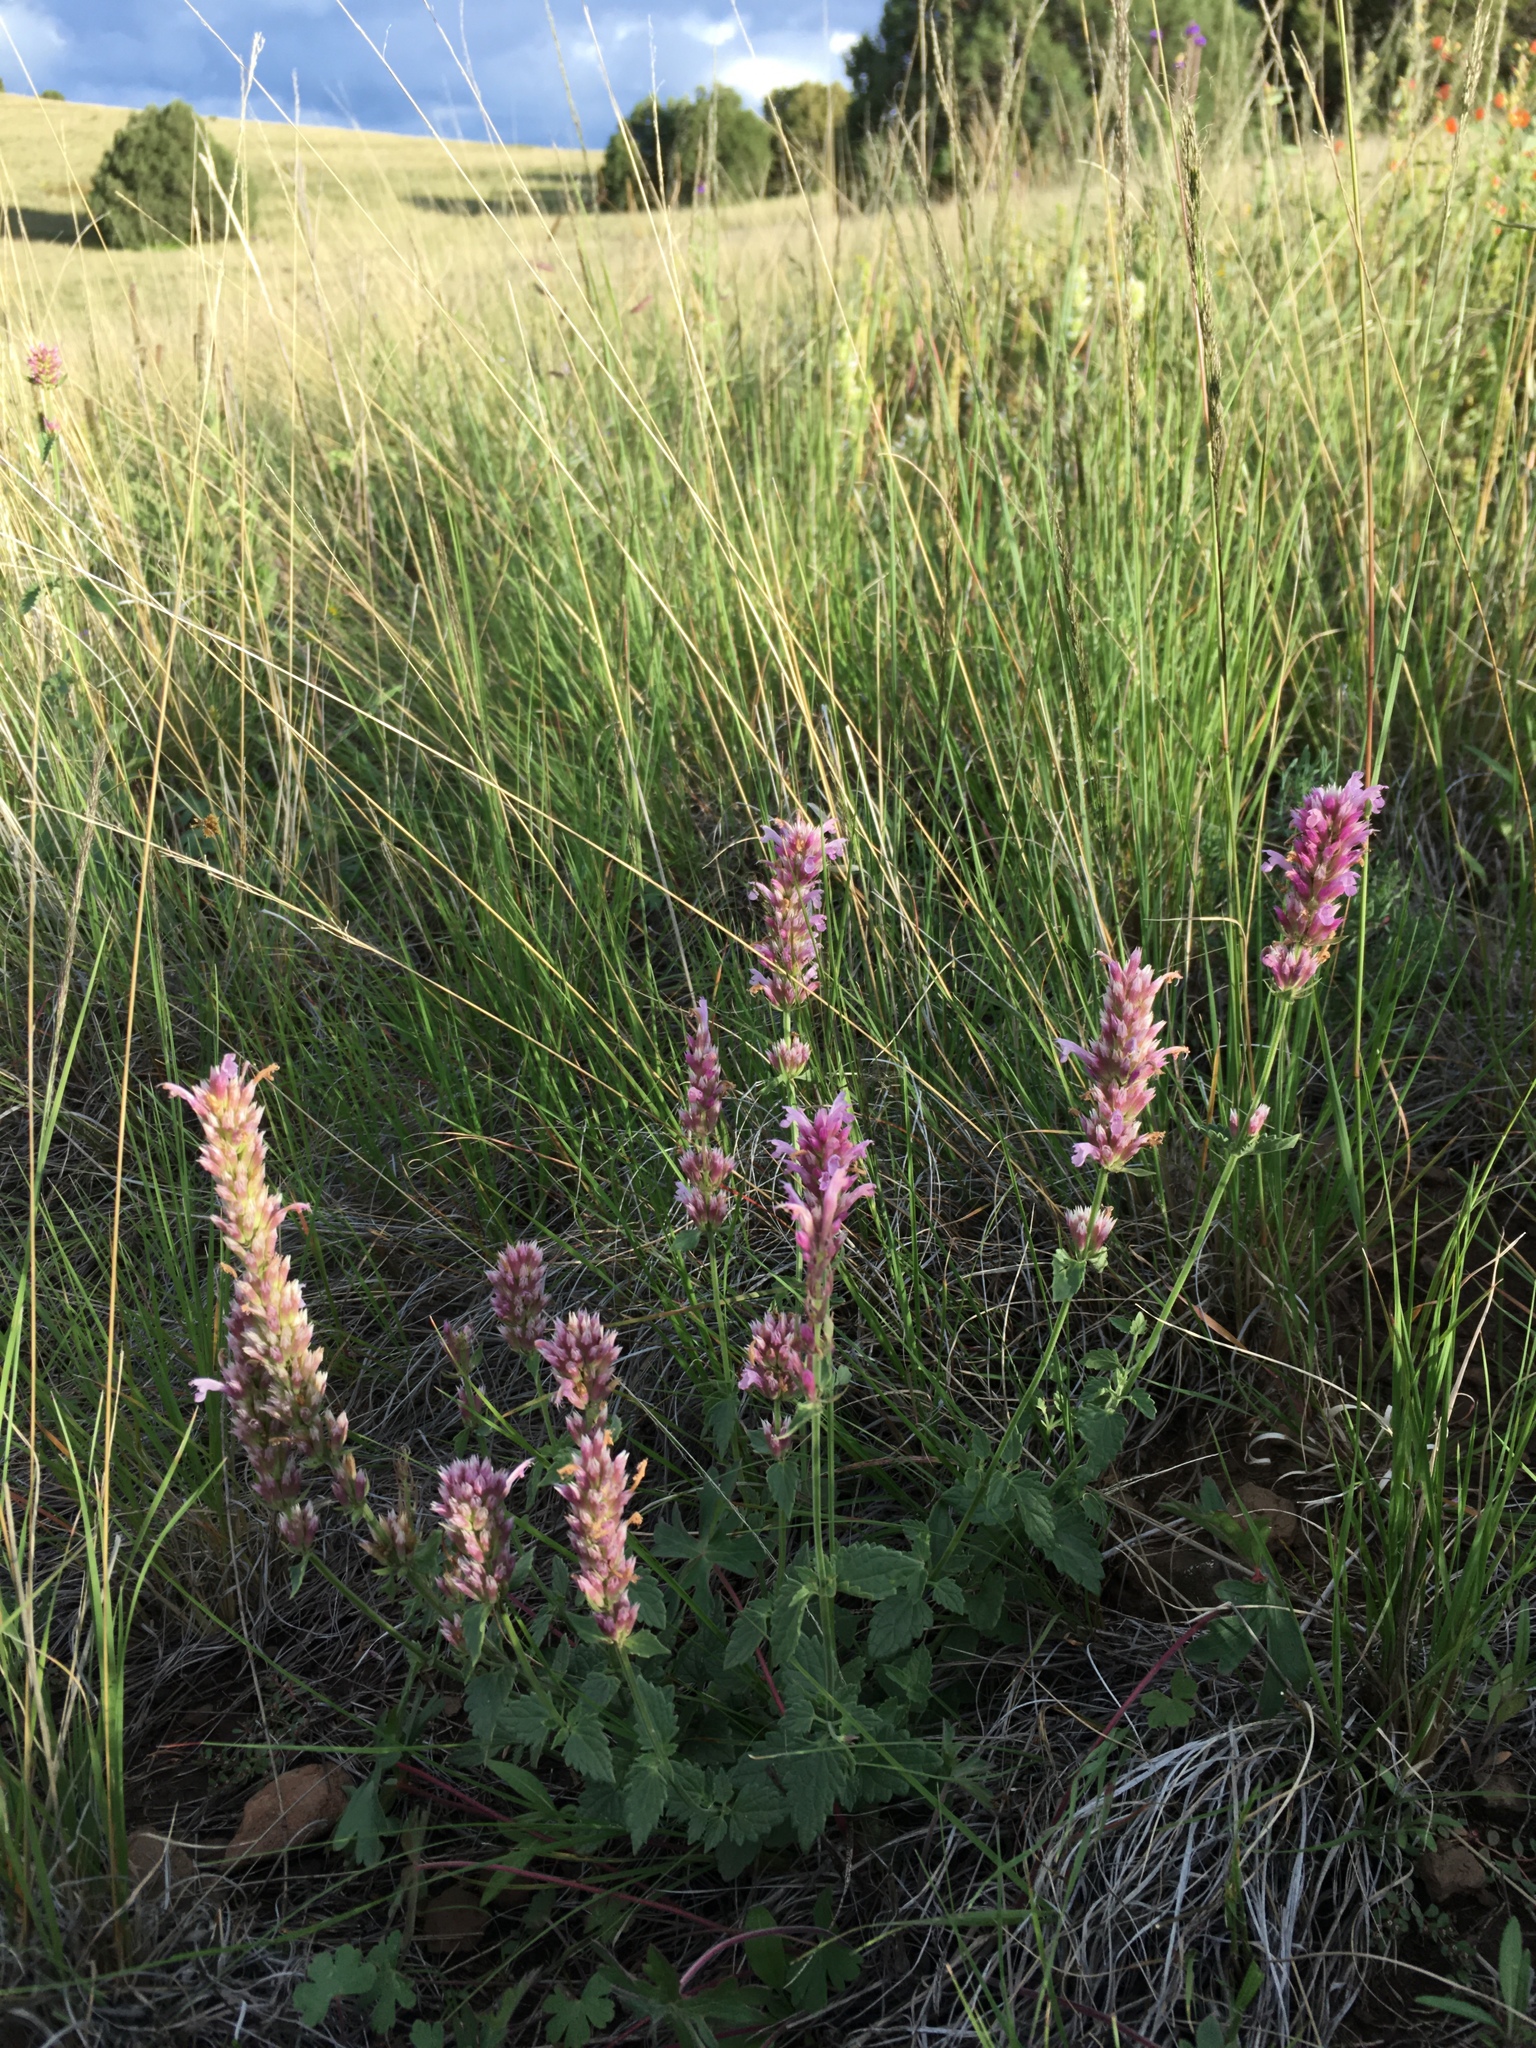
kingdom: Plantae
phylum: Tracheophyta
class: Magnoliopsida
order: Lamiales
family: Lamiaceae
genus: Agastache
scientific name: Agastache pallidiflora
